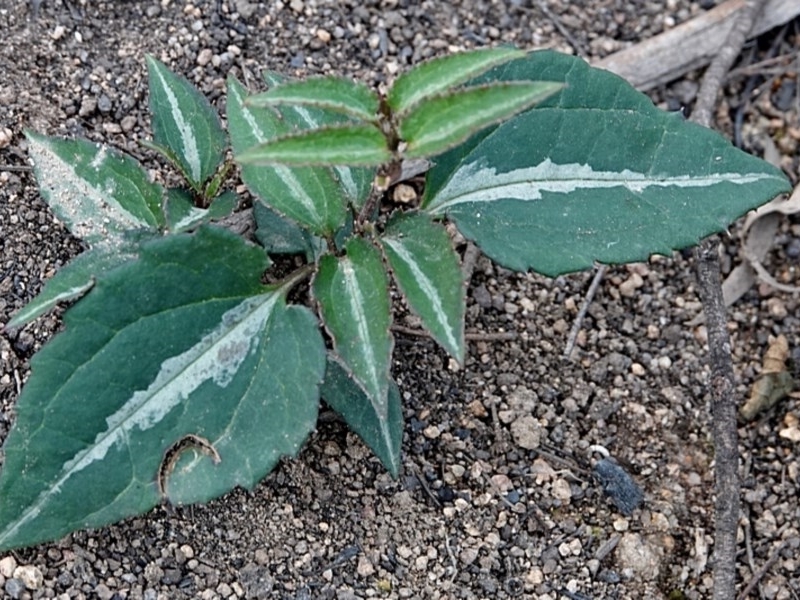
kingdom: Plantae
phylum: Tracheophyta
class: Magnoliopsida
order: Ranunculales
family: Ranunculaceae
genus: Clematis
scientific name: Clematis aristata
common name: Mountain clematis
